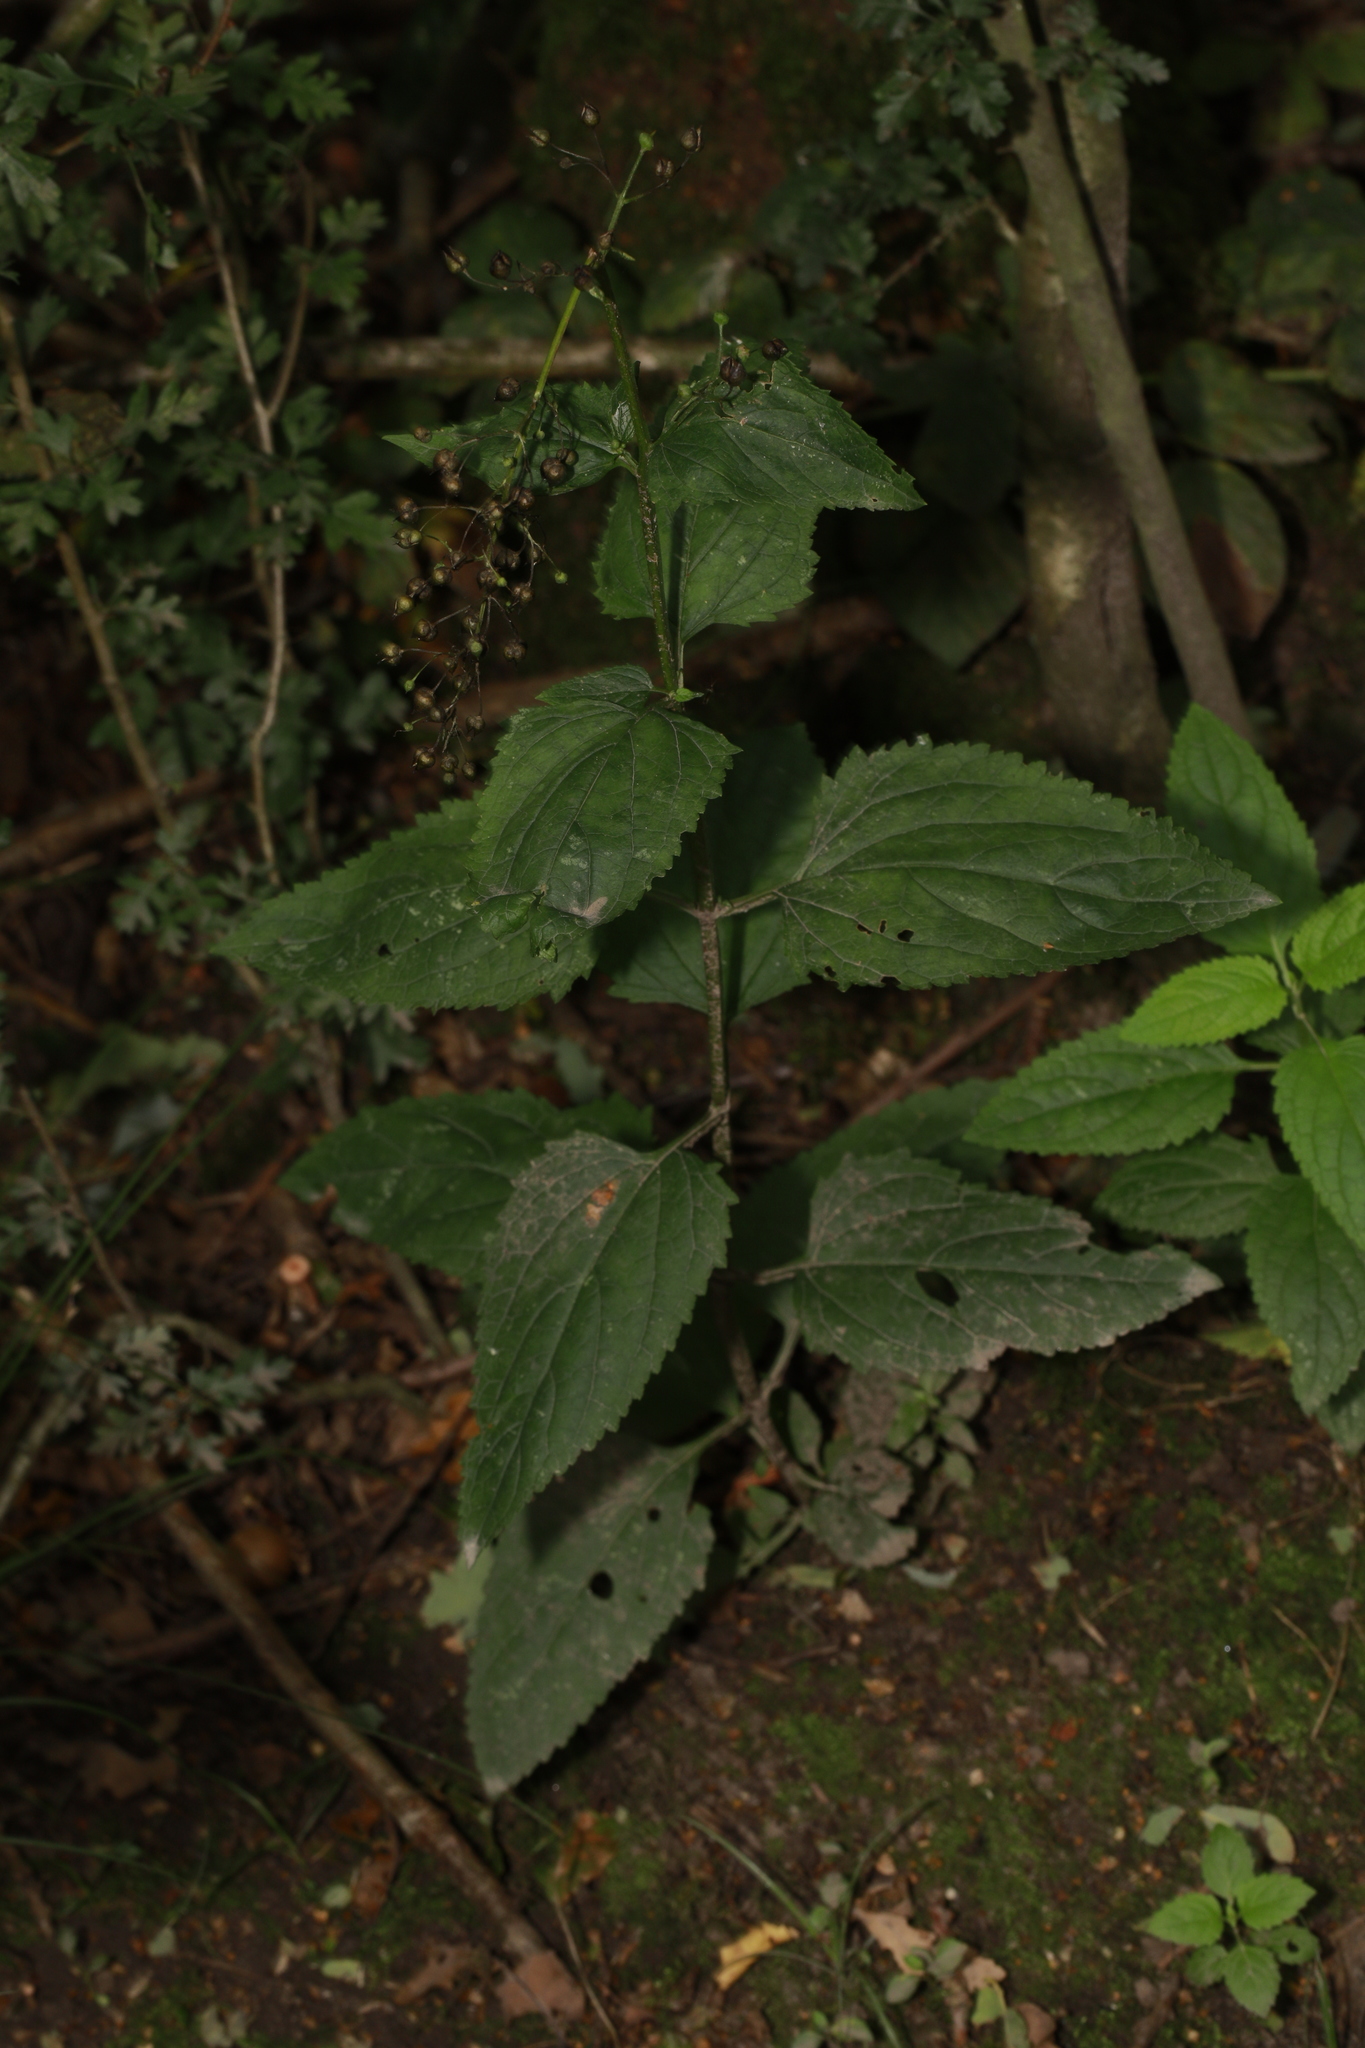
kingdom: Plantae
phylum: Tracheophyta
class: Magnoliopsida
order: Lamiales
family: Scrophulariaceae
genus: Scrophularia
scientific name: Scrophularia nodosa
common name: Common figwort
